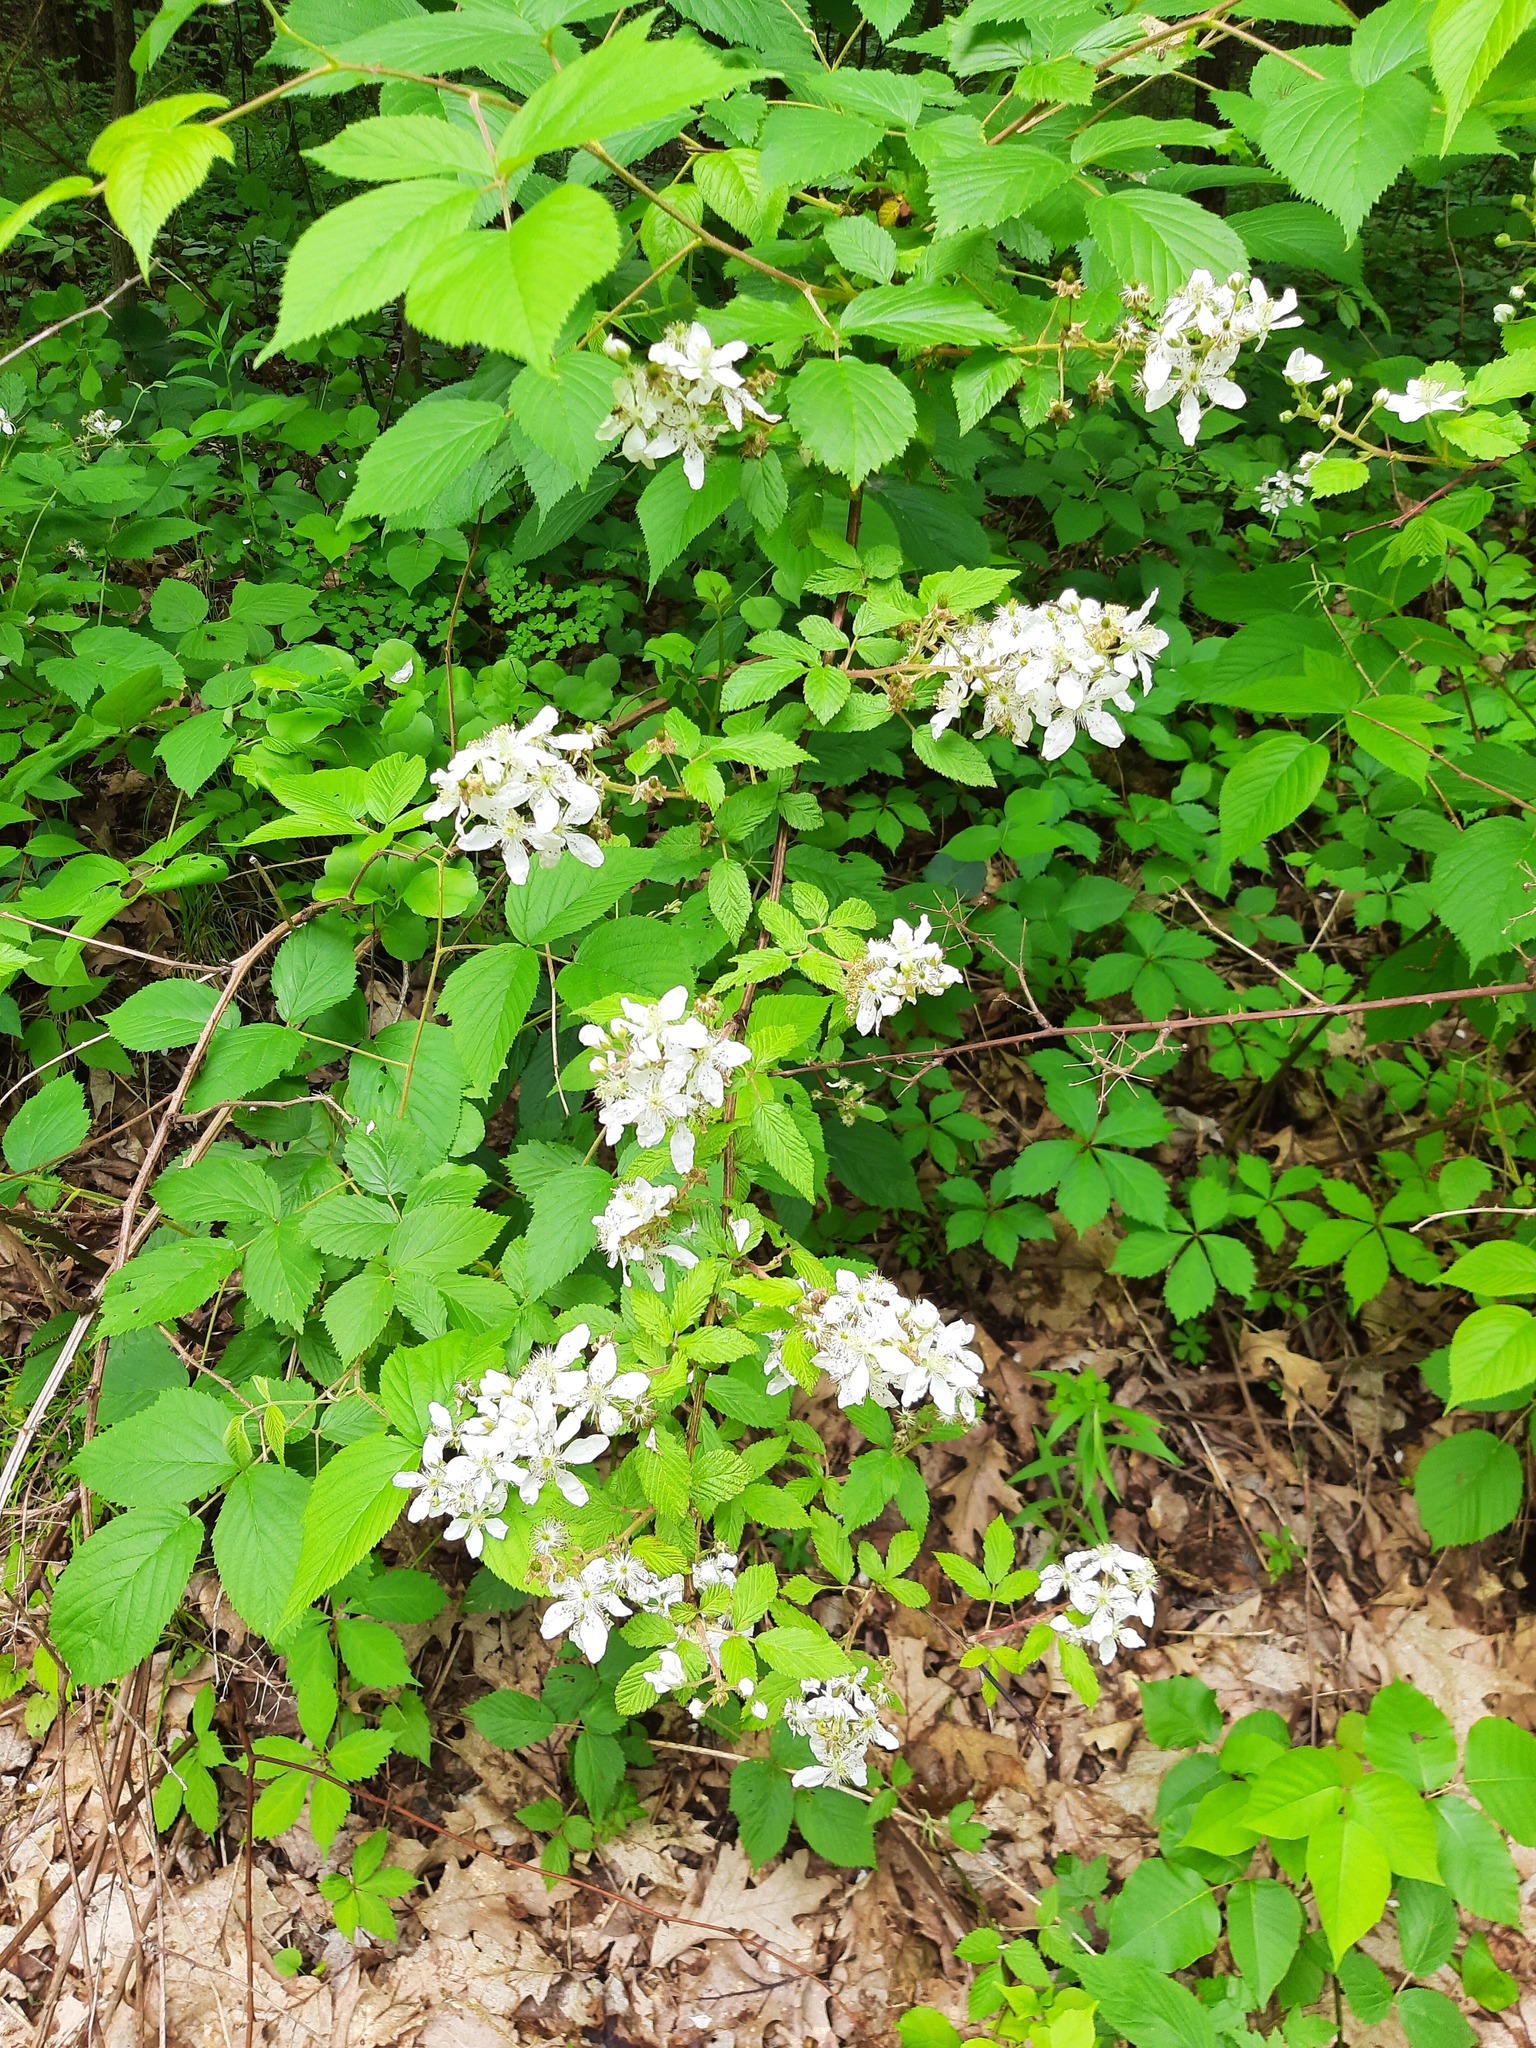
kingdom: Plantae
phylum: Tracheophyta
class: Magnoliopsida
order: Rosales
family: Rosaceae
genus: Rubus
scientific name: Rubus allegheniensis
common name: Allegheny blackberry
